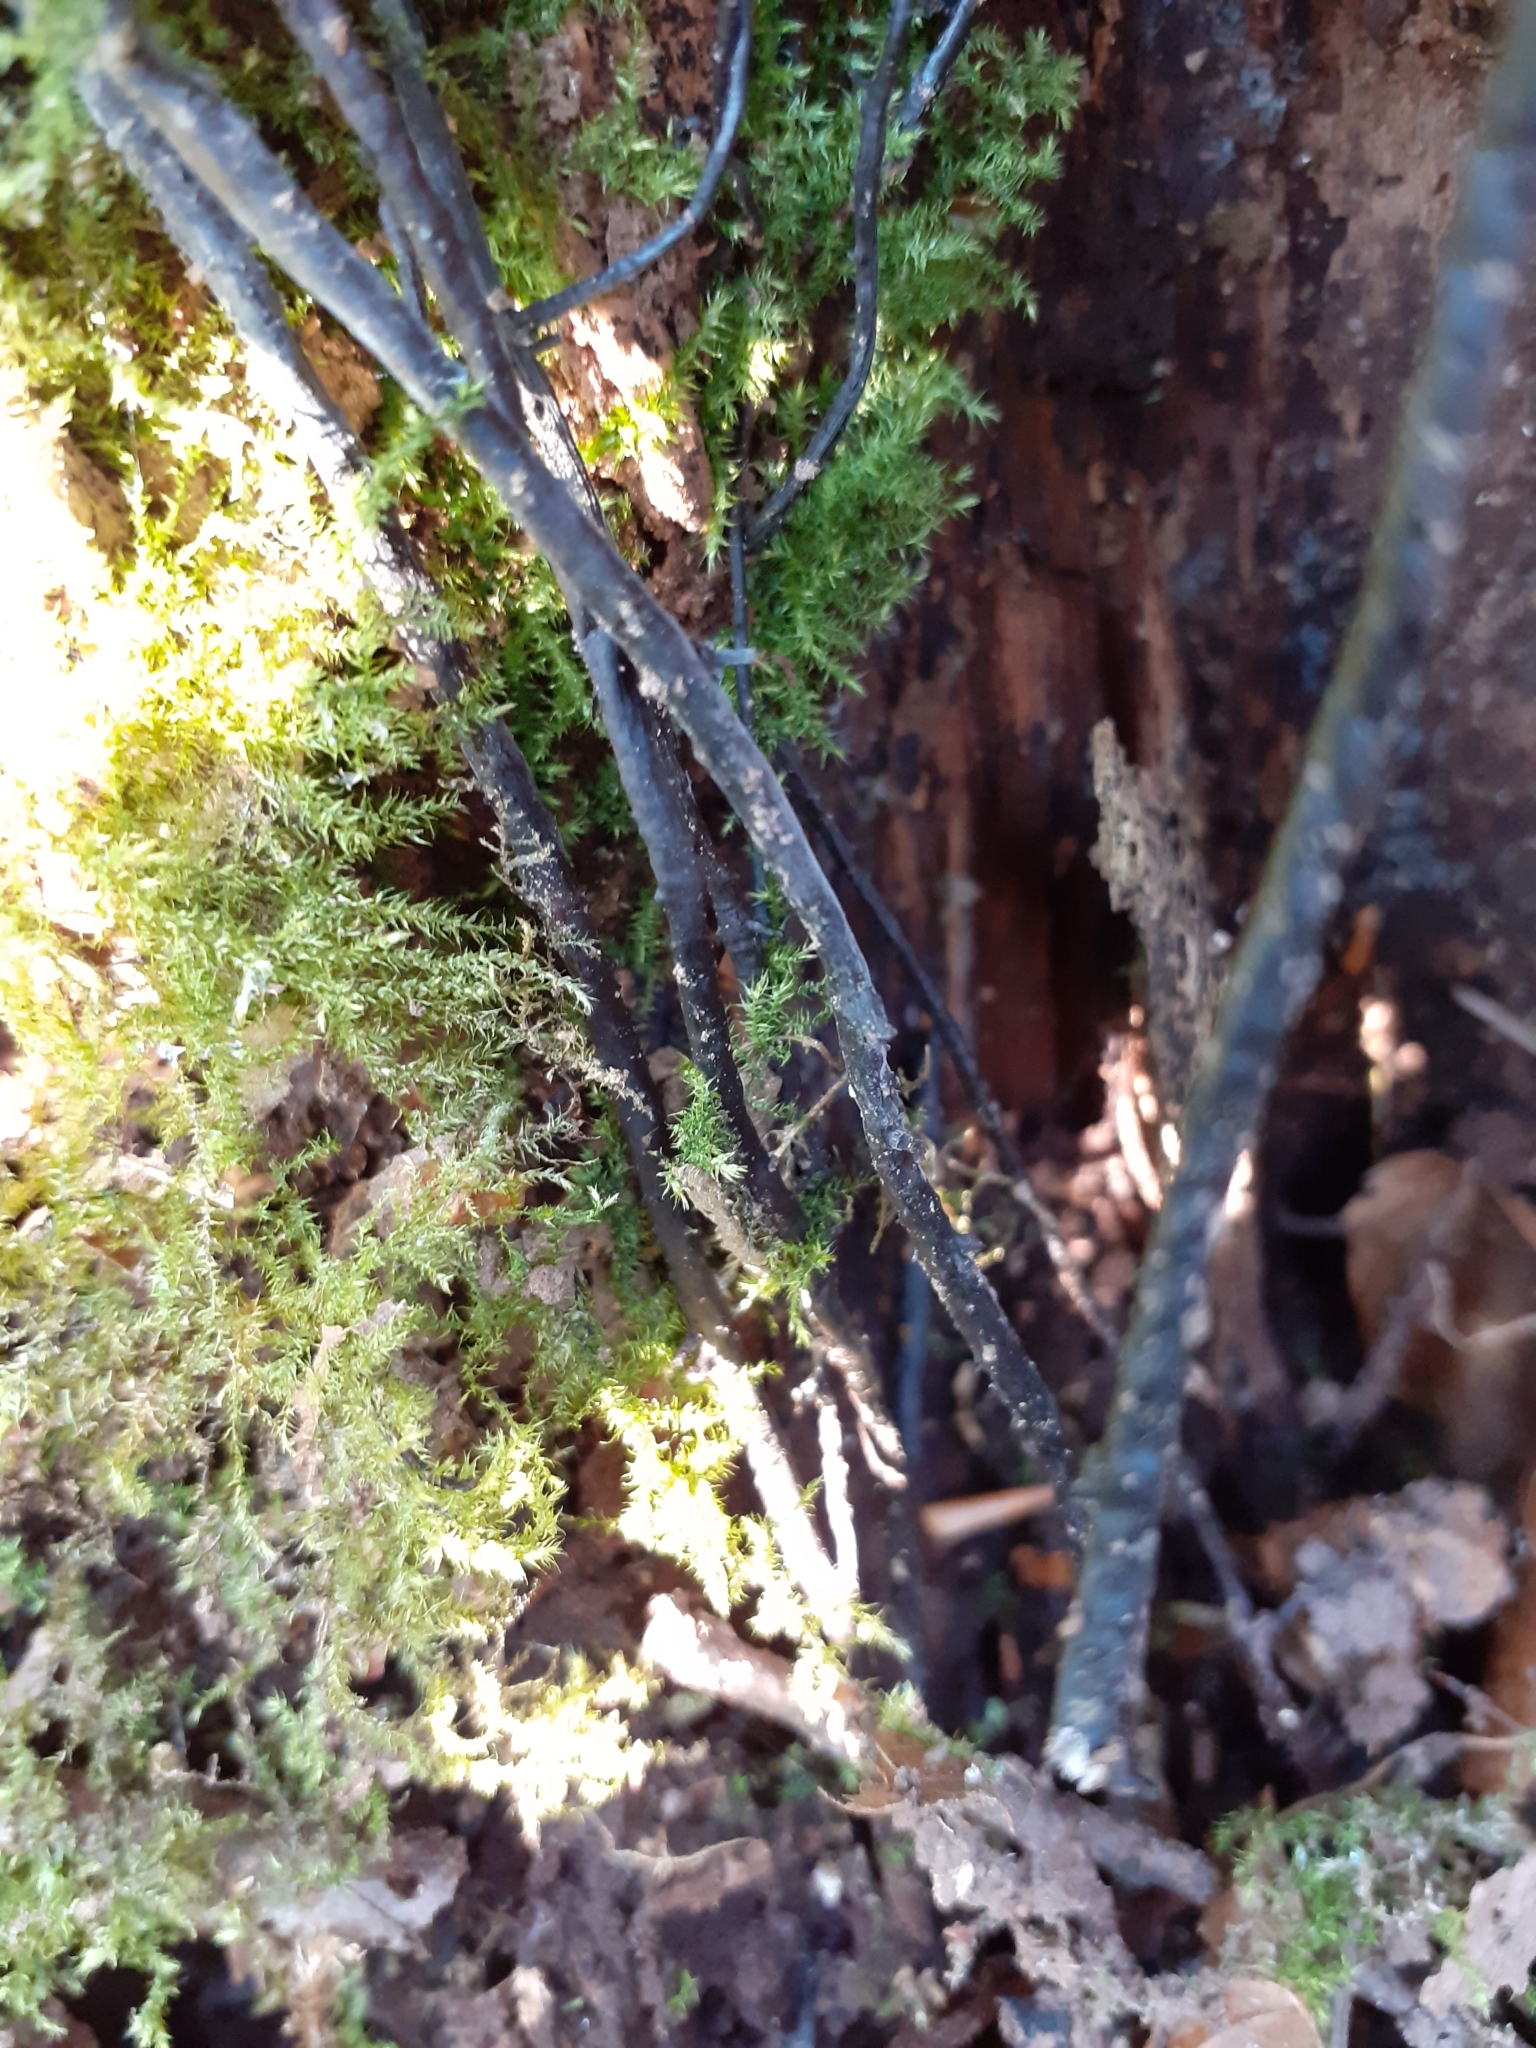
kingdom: Plantae
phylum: Bryophyta
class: Bryopsida
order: Hypnales
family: Brachytheciaceae
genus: Kindbergia
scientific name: Kindbergia praelonga
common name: Slender beaked moss
